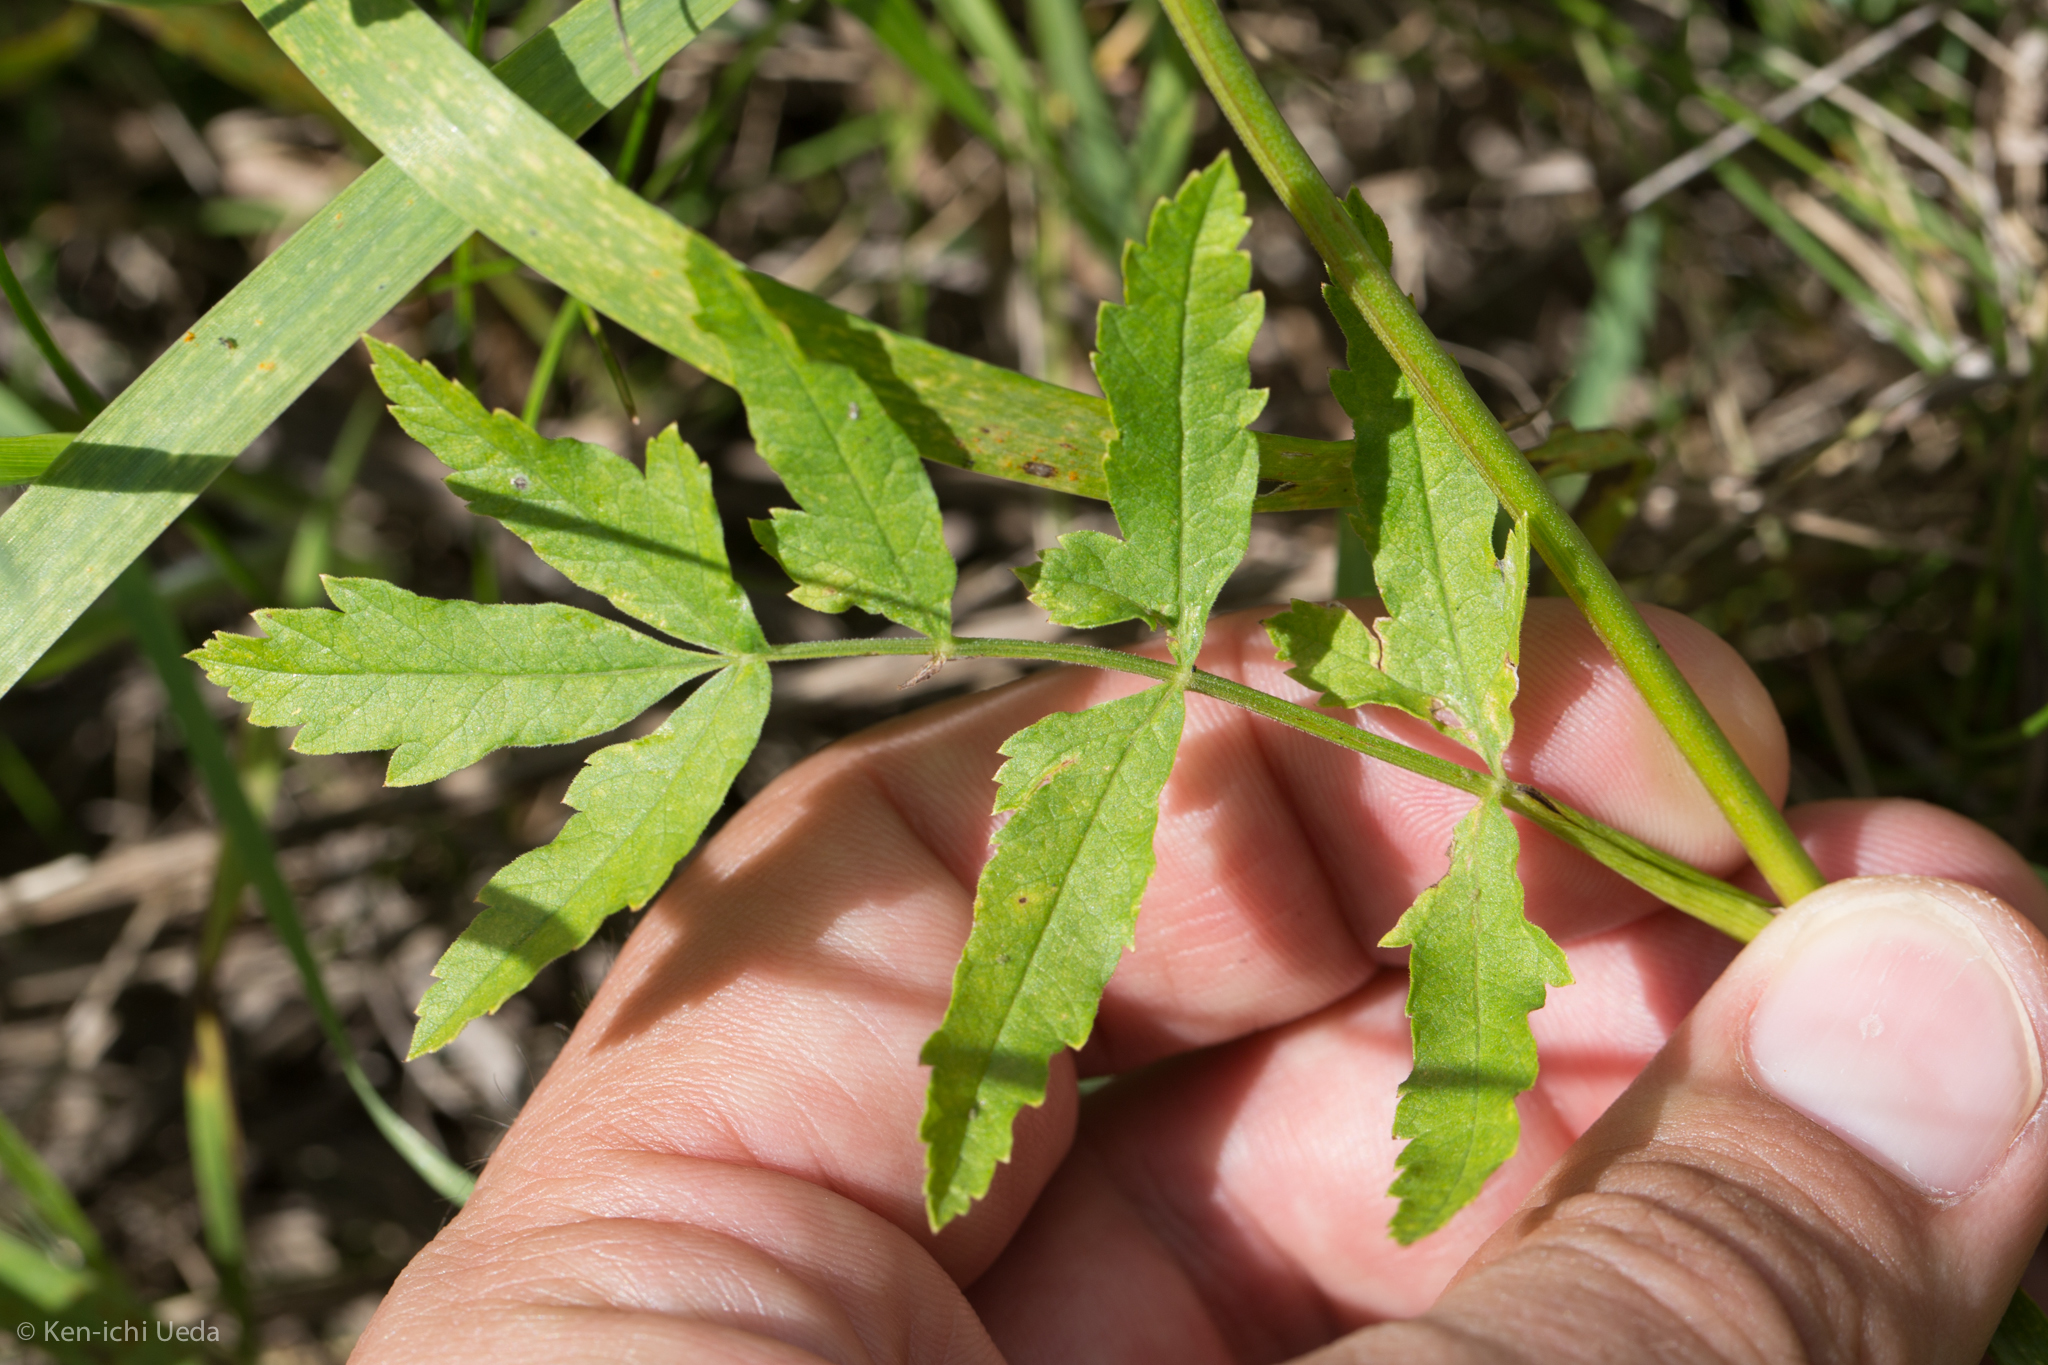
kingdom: Plantae
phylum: Tracheophyta
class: Magnoliopsida
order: Apiales
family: Apiaceae
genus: Pastinaca
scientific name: Pastinaca sativa
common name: Wild parsnip
